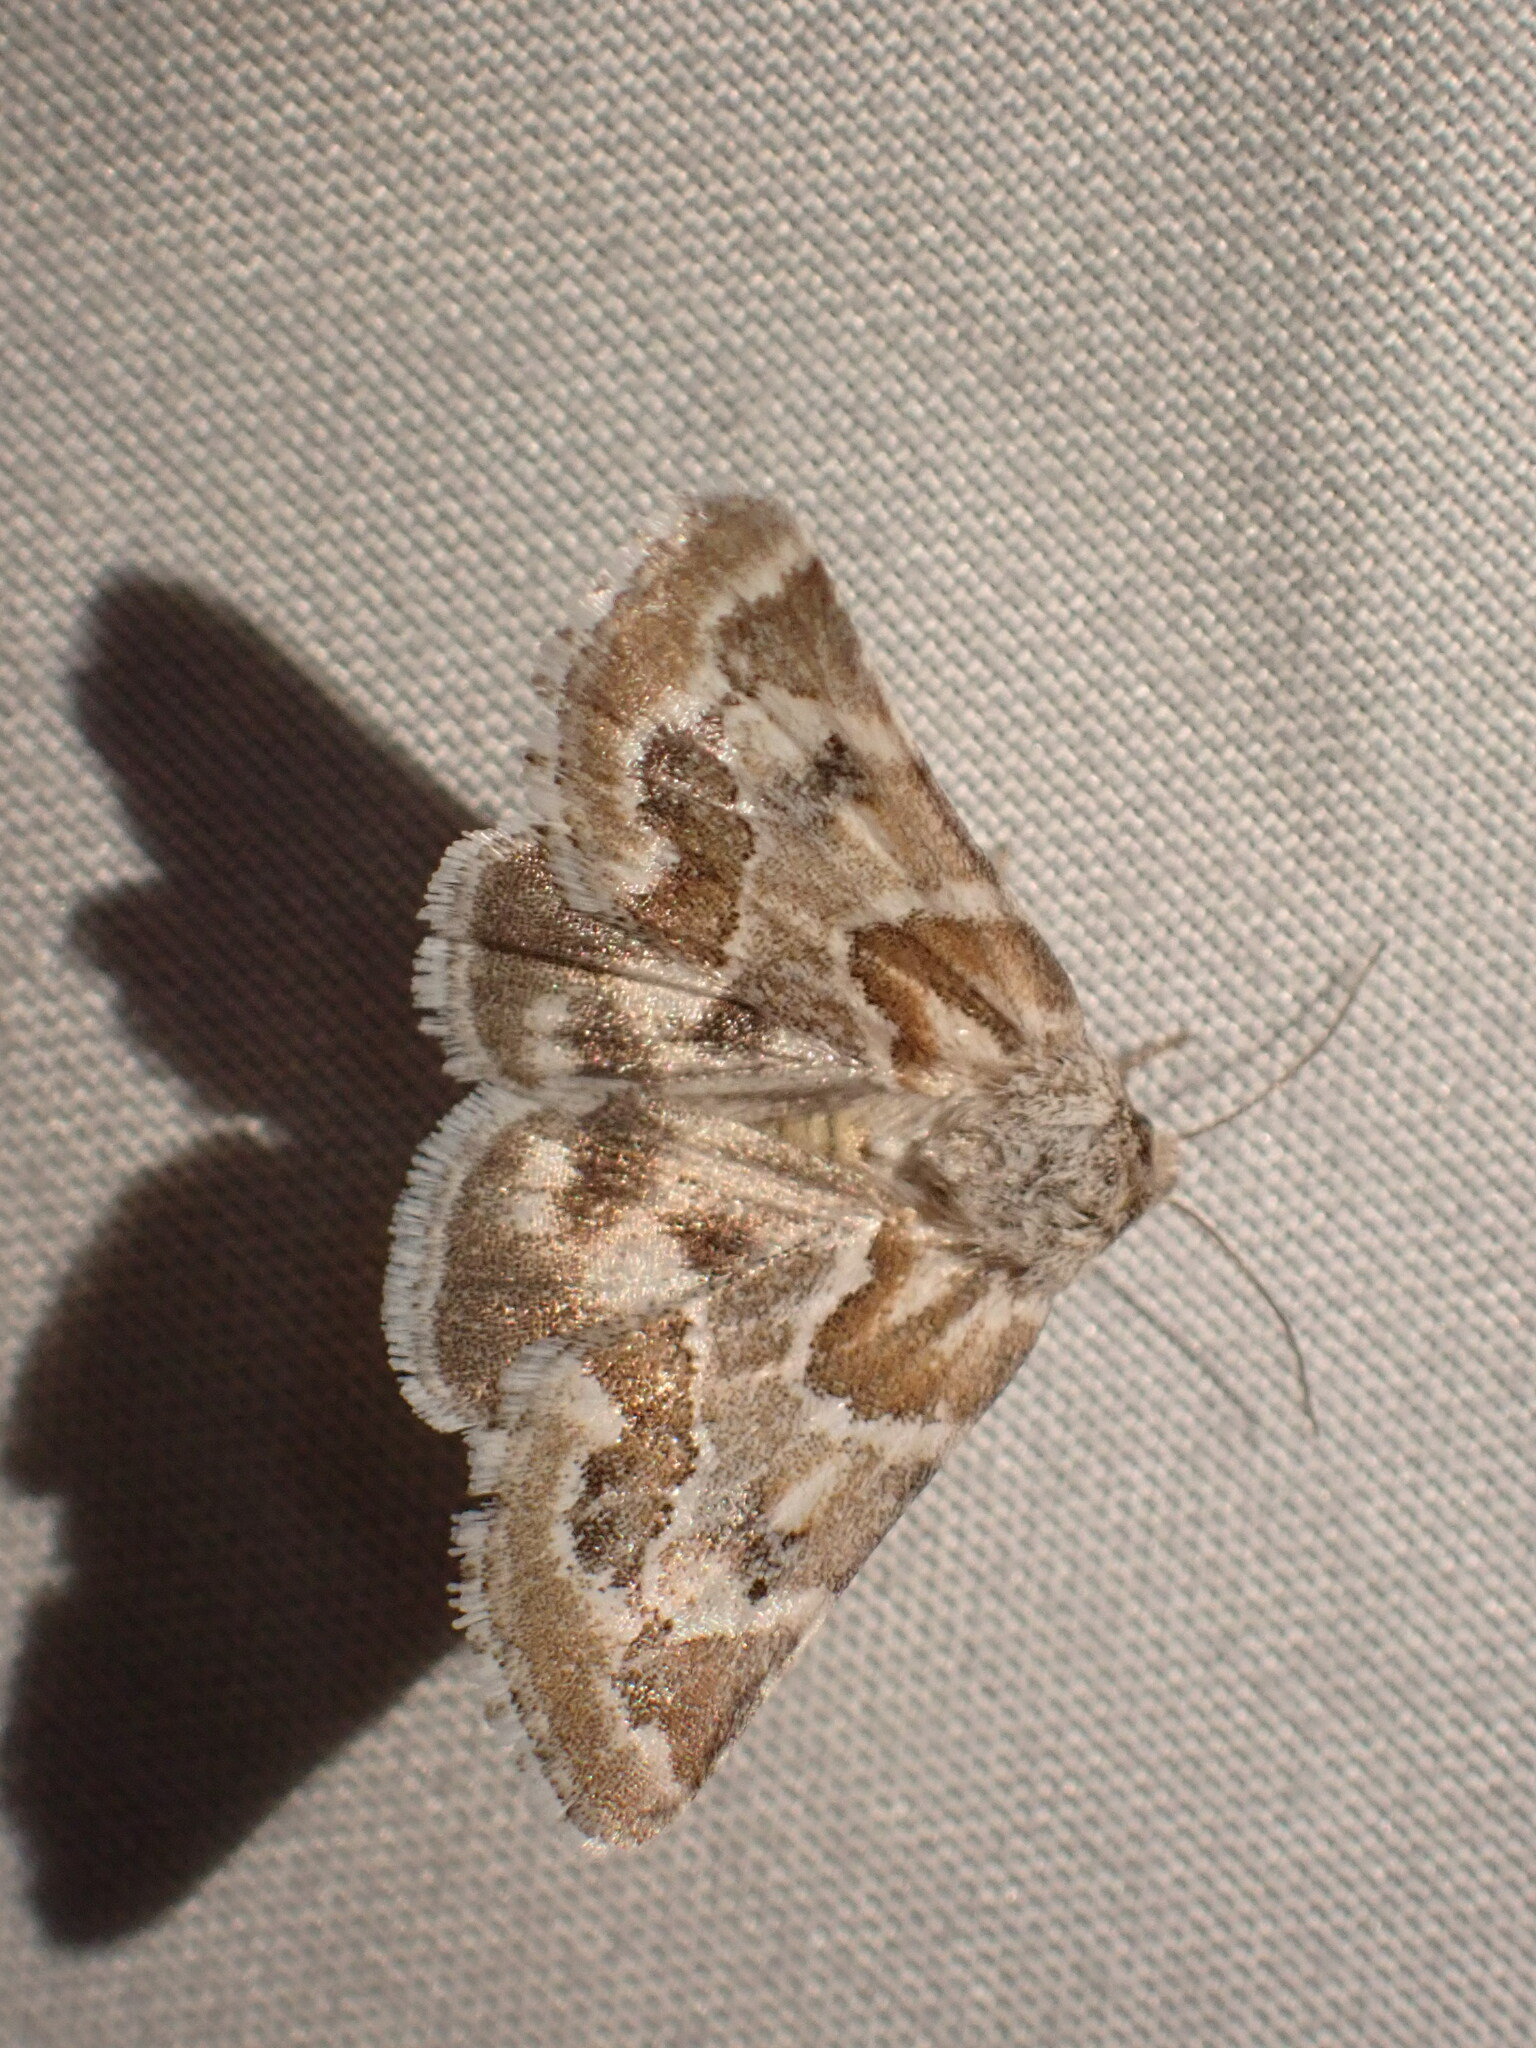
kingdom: Animalia
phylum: Arthropoda
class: Insecta
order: Lepidoptera
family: Noctuidae
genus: Schinia
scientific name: Schinia acutilinea
